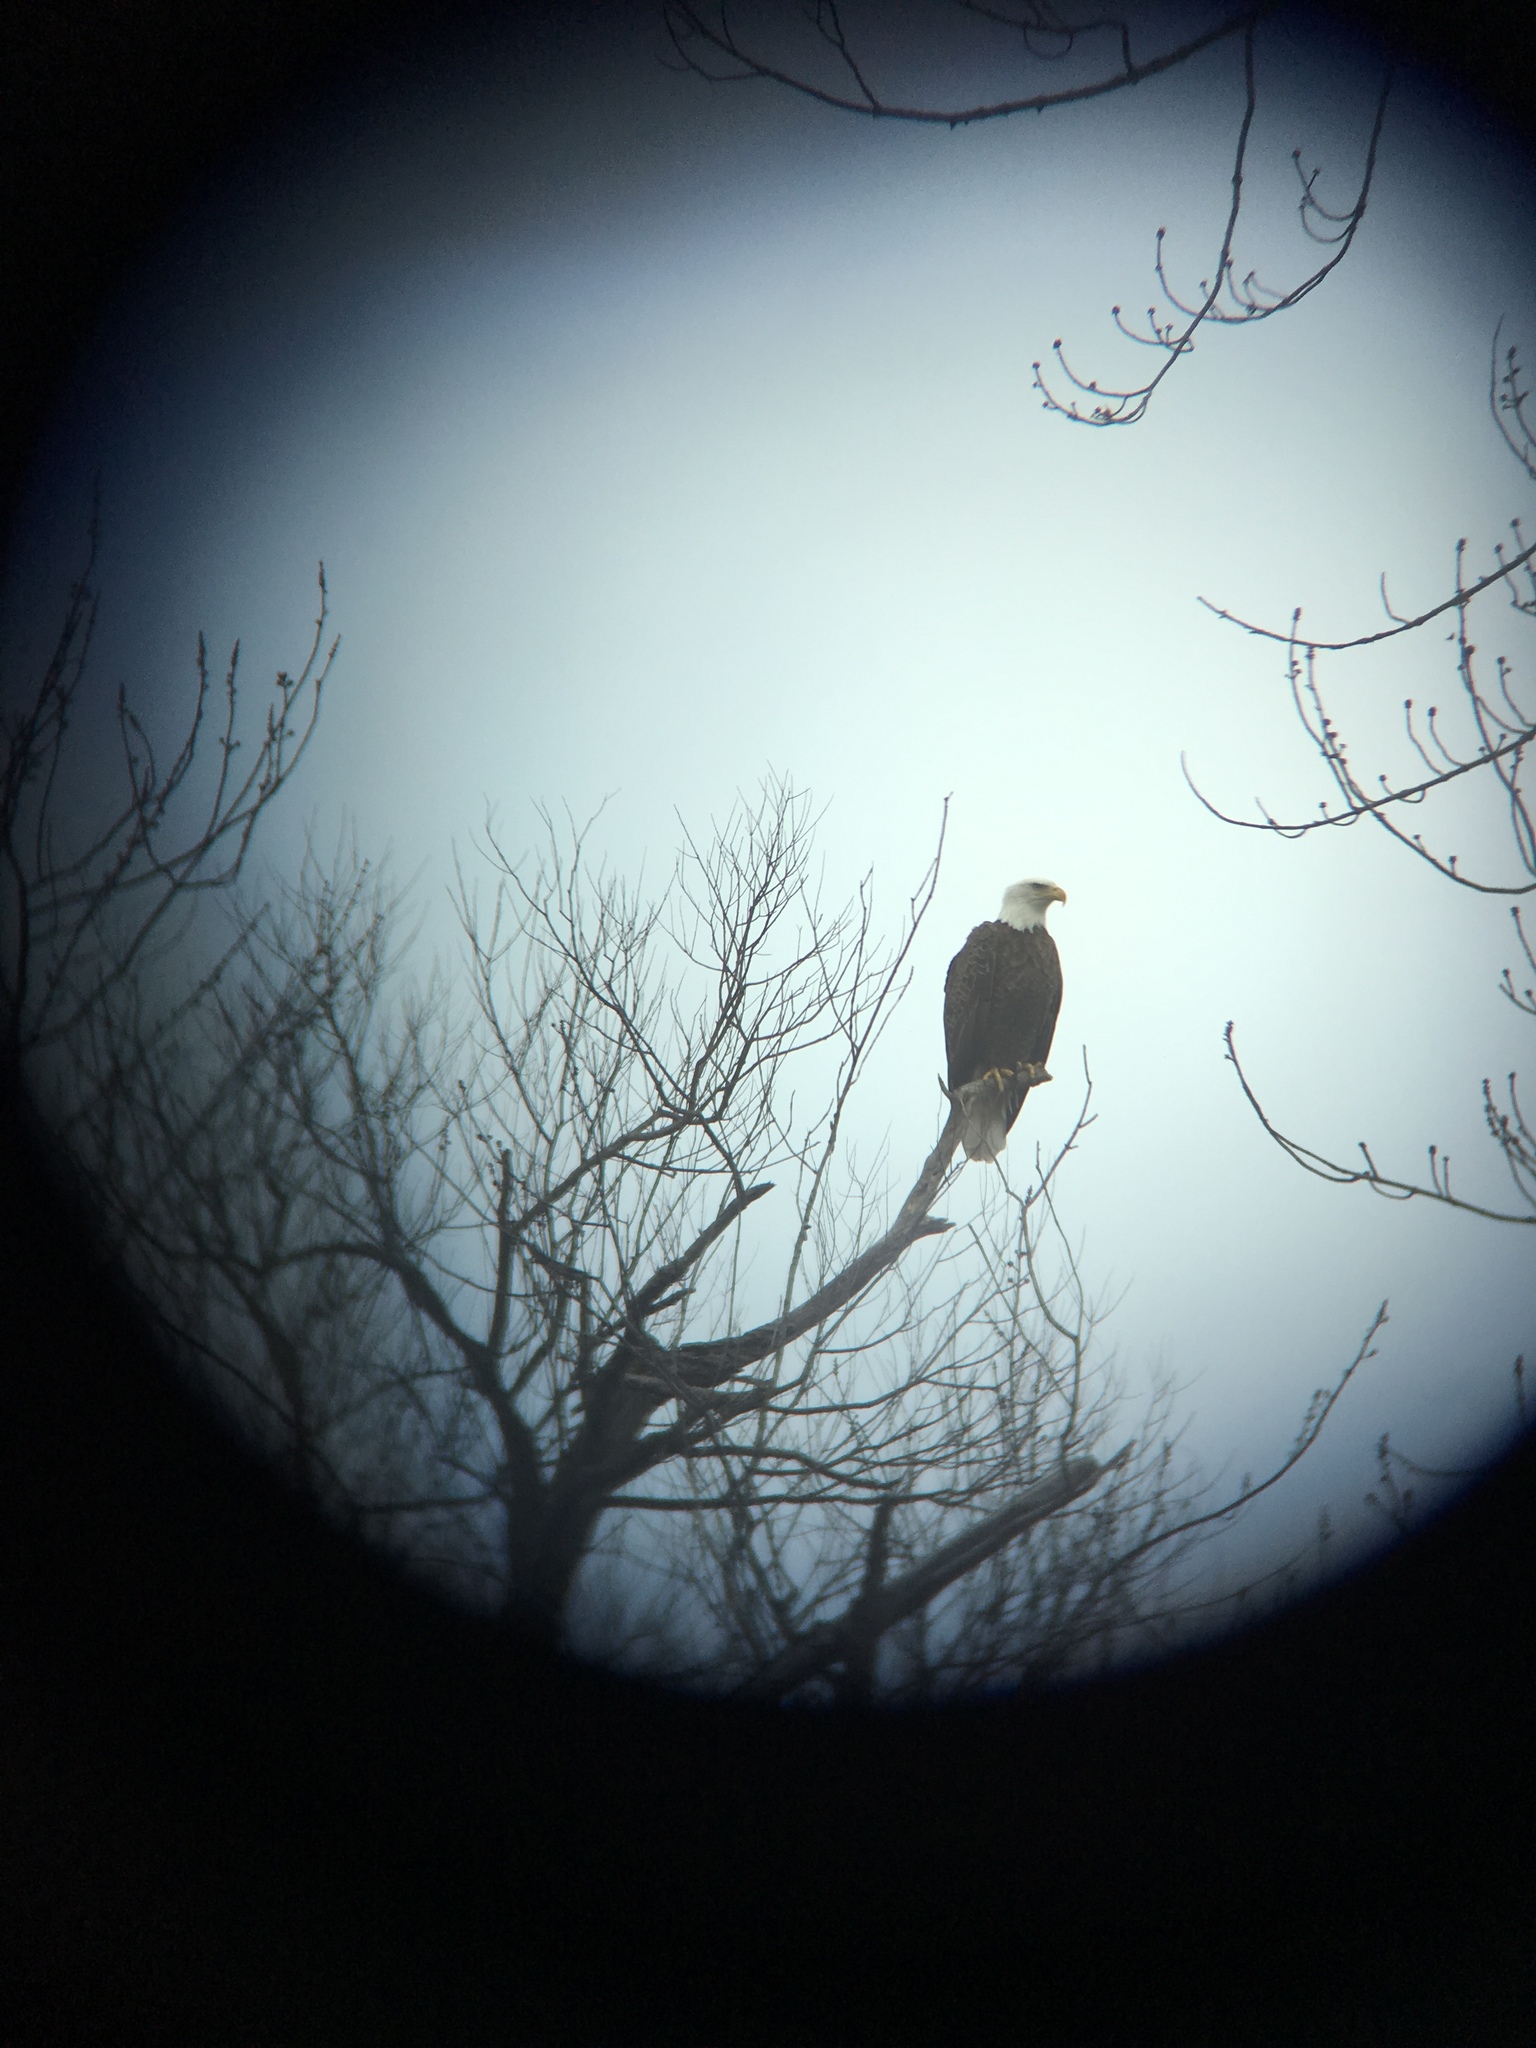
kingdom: Animalia
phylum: Chordata
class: Aves
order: Accipitriformes
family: Accipitridae
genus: Haliaeetus
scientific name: Haliaeetus leucocephalus
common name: Bald eagle
